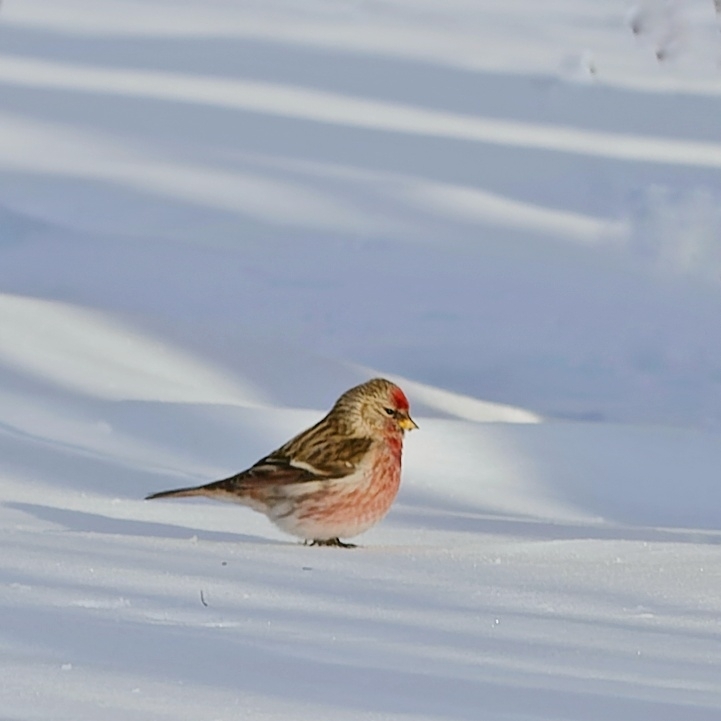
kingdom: Animalia
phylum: Chordata
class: Aves
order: Passeriformes
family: Fringillidae
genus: Acanthis
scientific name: Acanthis flammea
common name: Common redpoll
